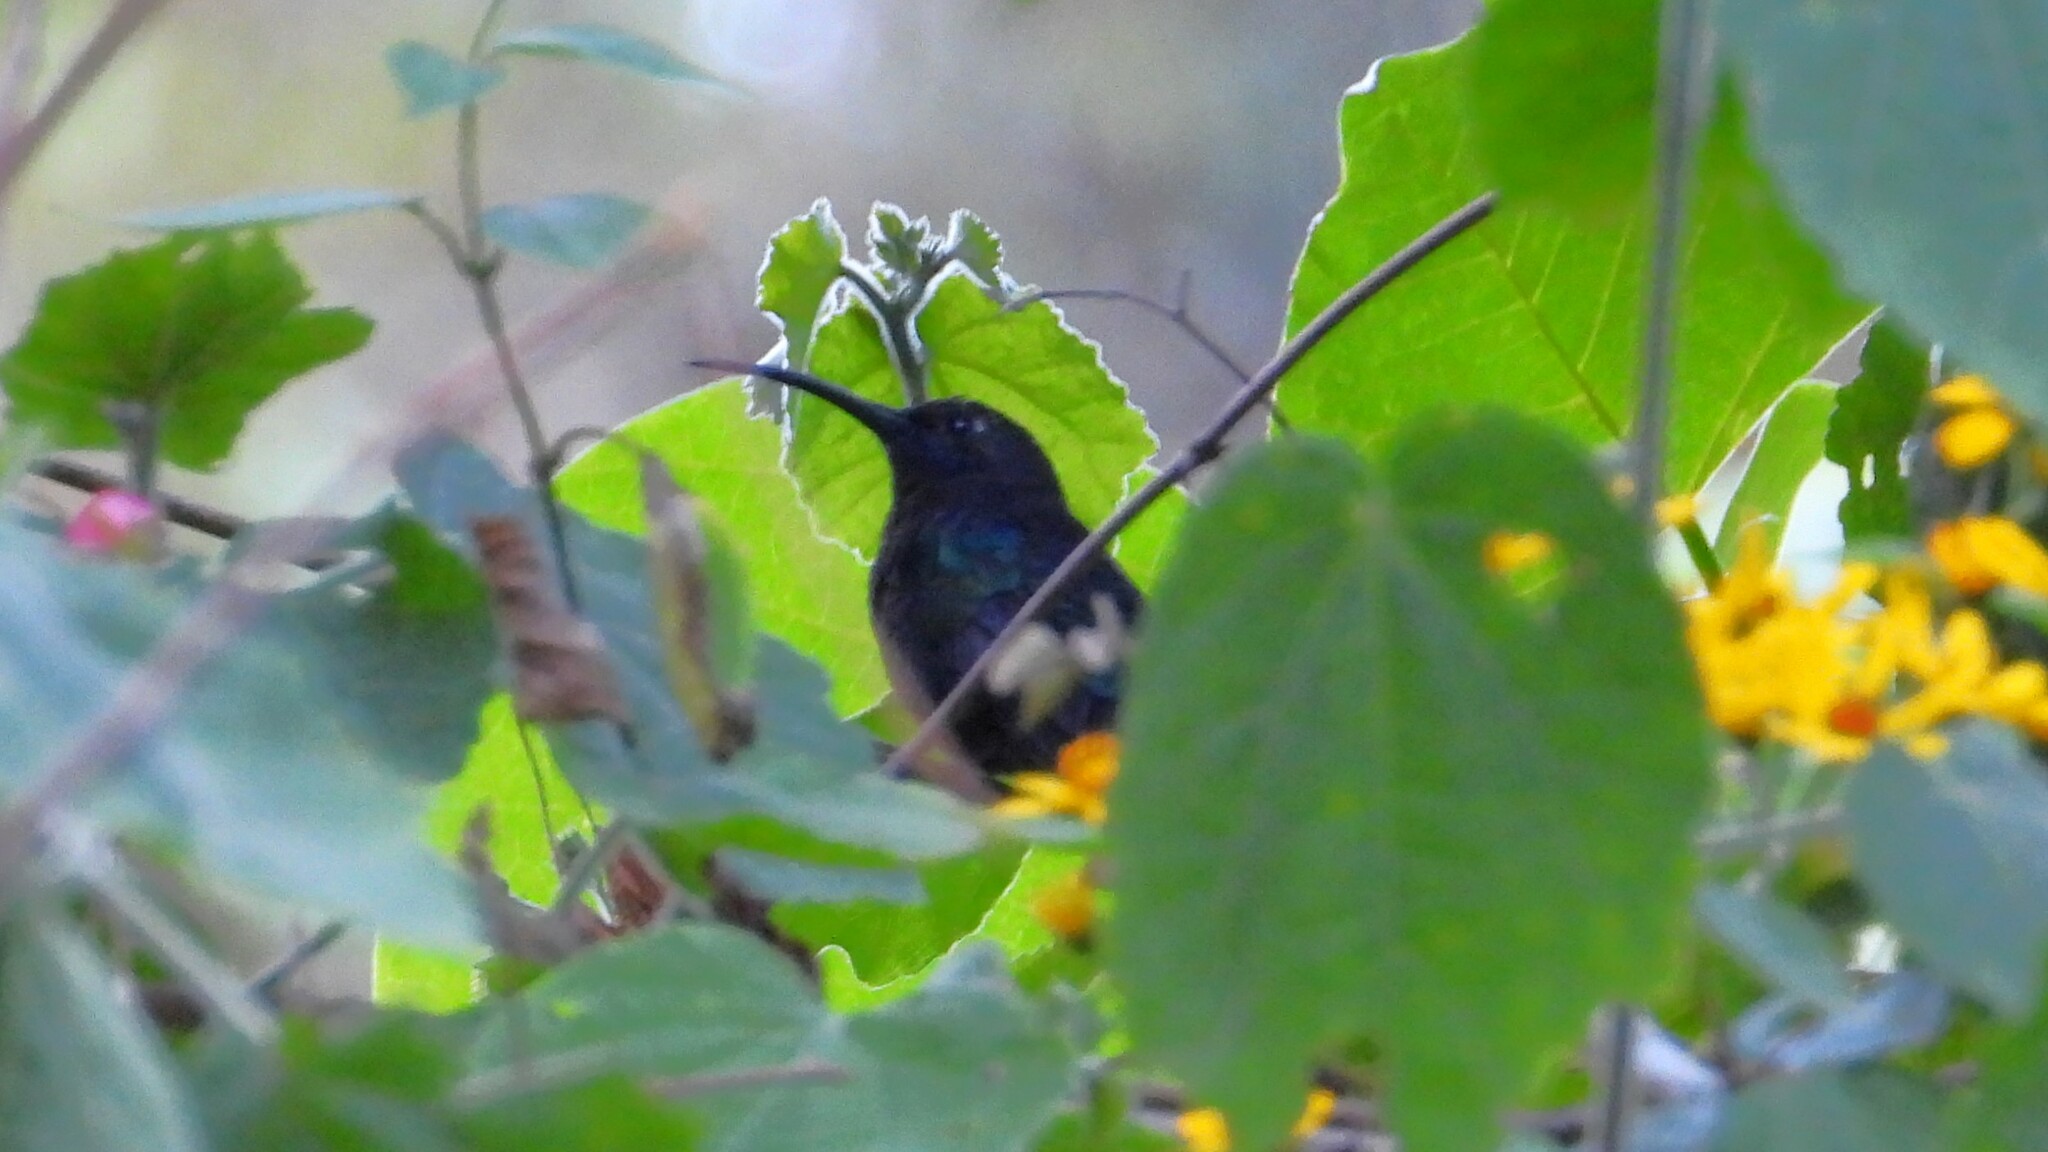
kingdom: Animalia
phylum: Chordata
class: Aves
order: Apodiformes
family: Trochilidae
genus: Campylopterus
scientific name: Campylopterus hemileucurus
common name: Violet sabrewing
